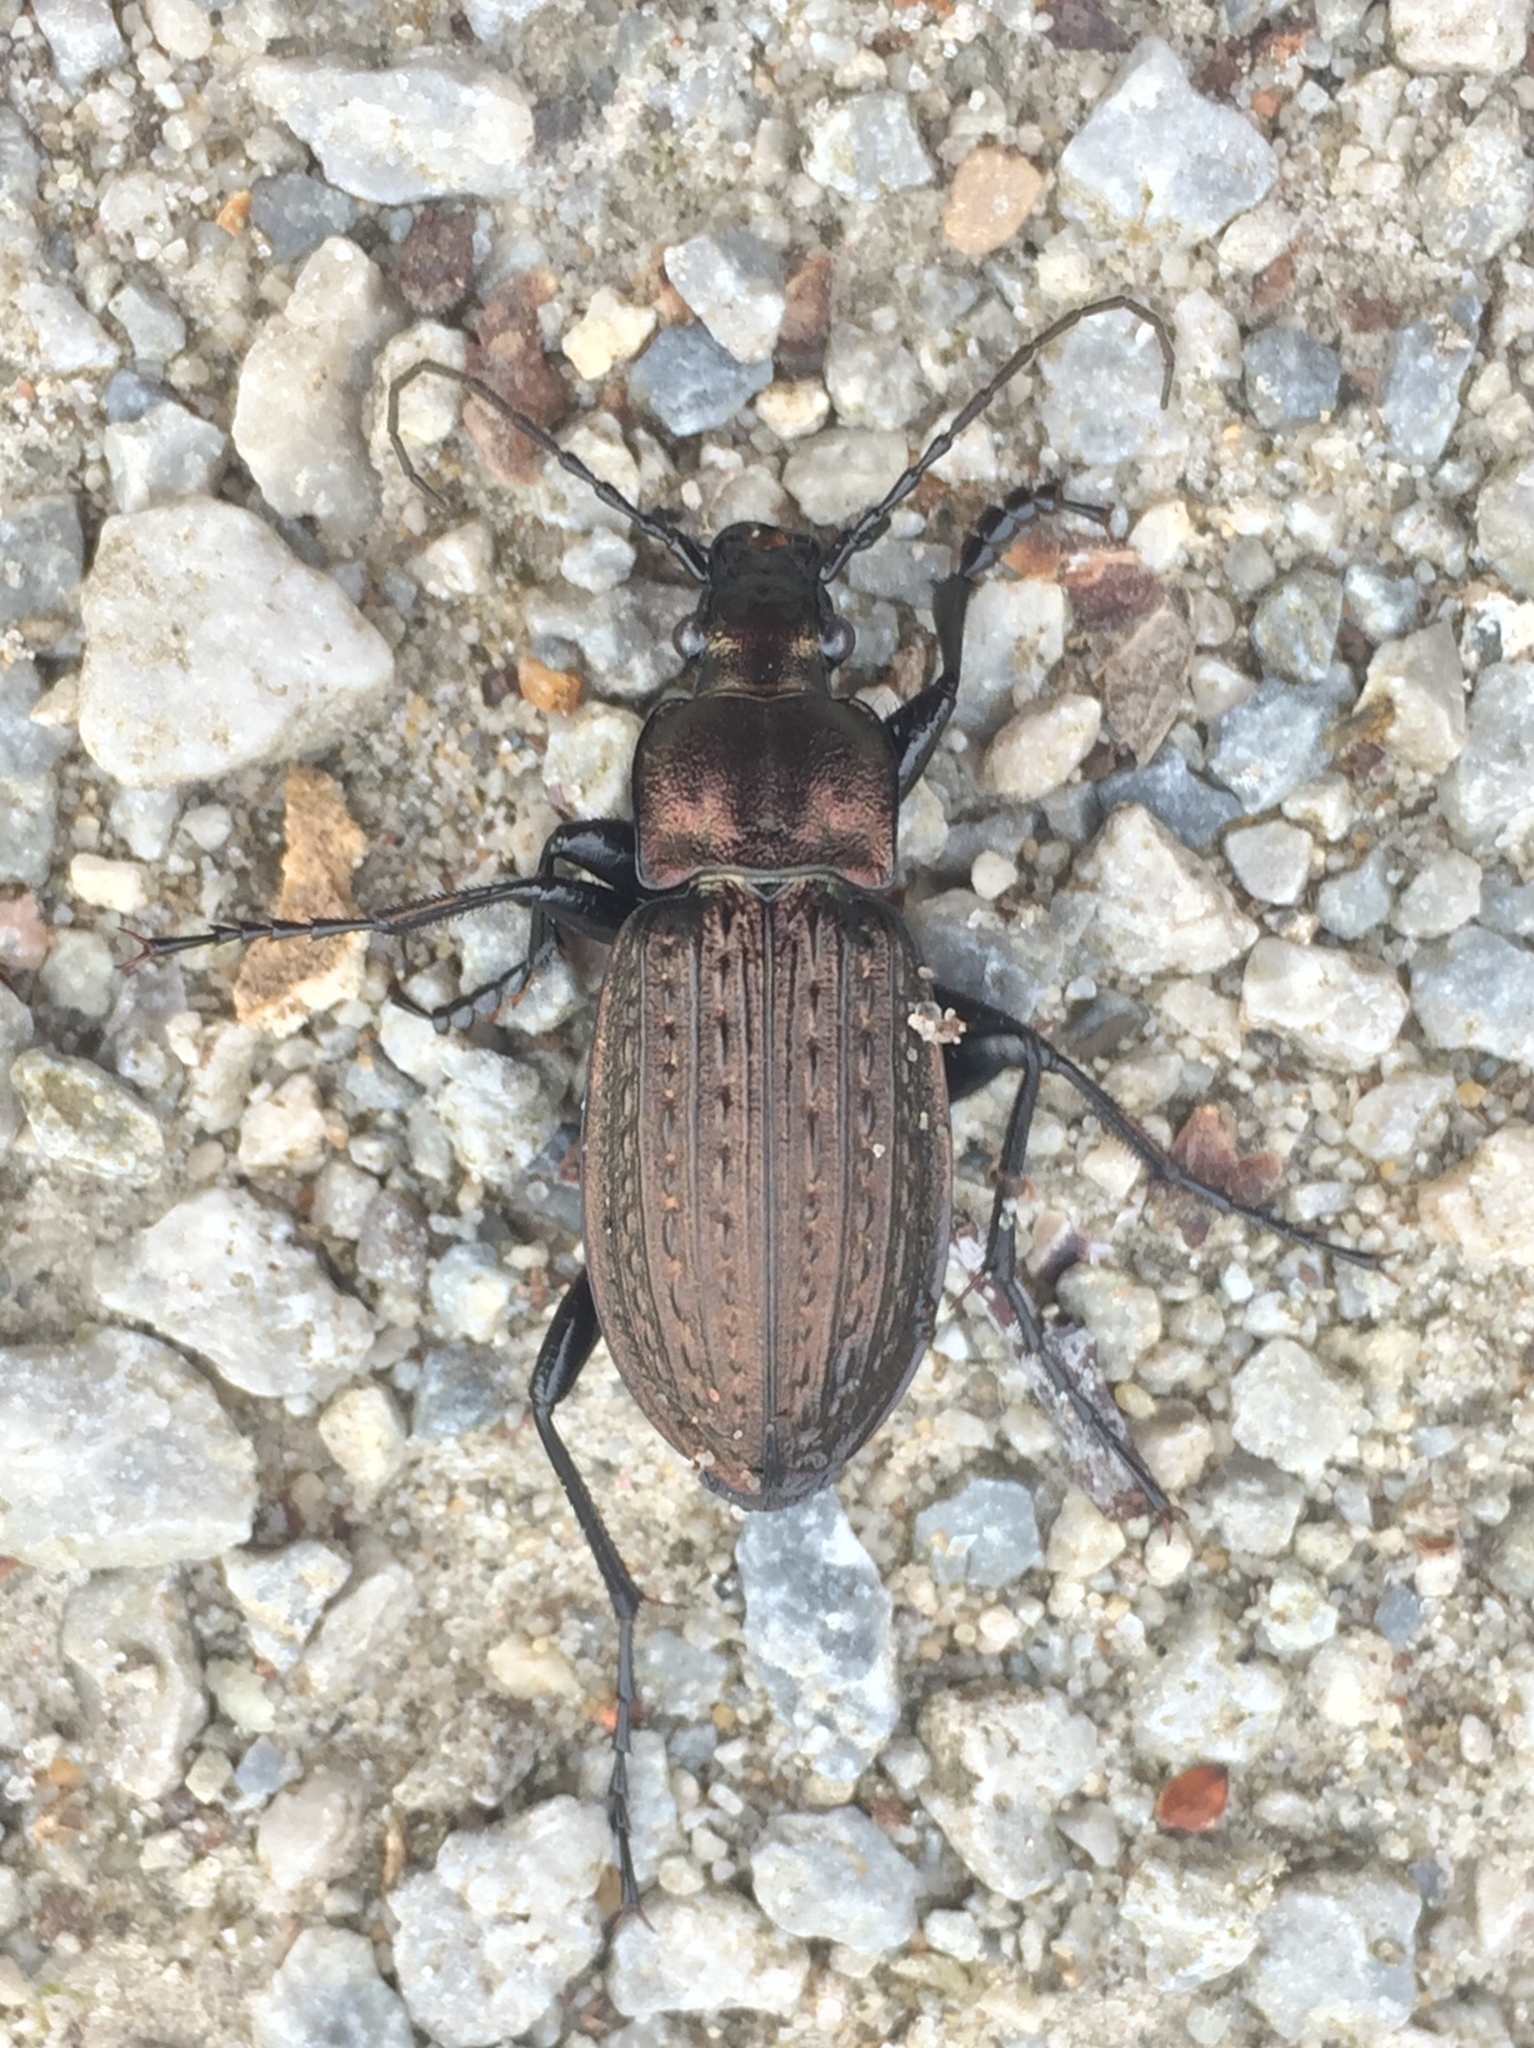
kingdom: Animalia
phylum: Arthropoda
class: Insecta
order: Coleoptera
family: Carabidae
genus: Carabus
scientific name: Carabus granulatus
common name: Granulate ground beetle
